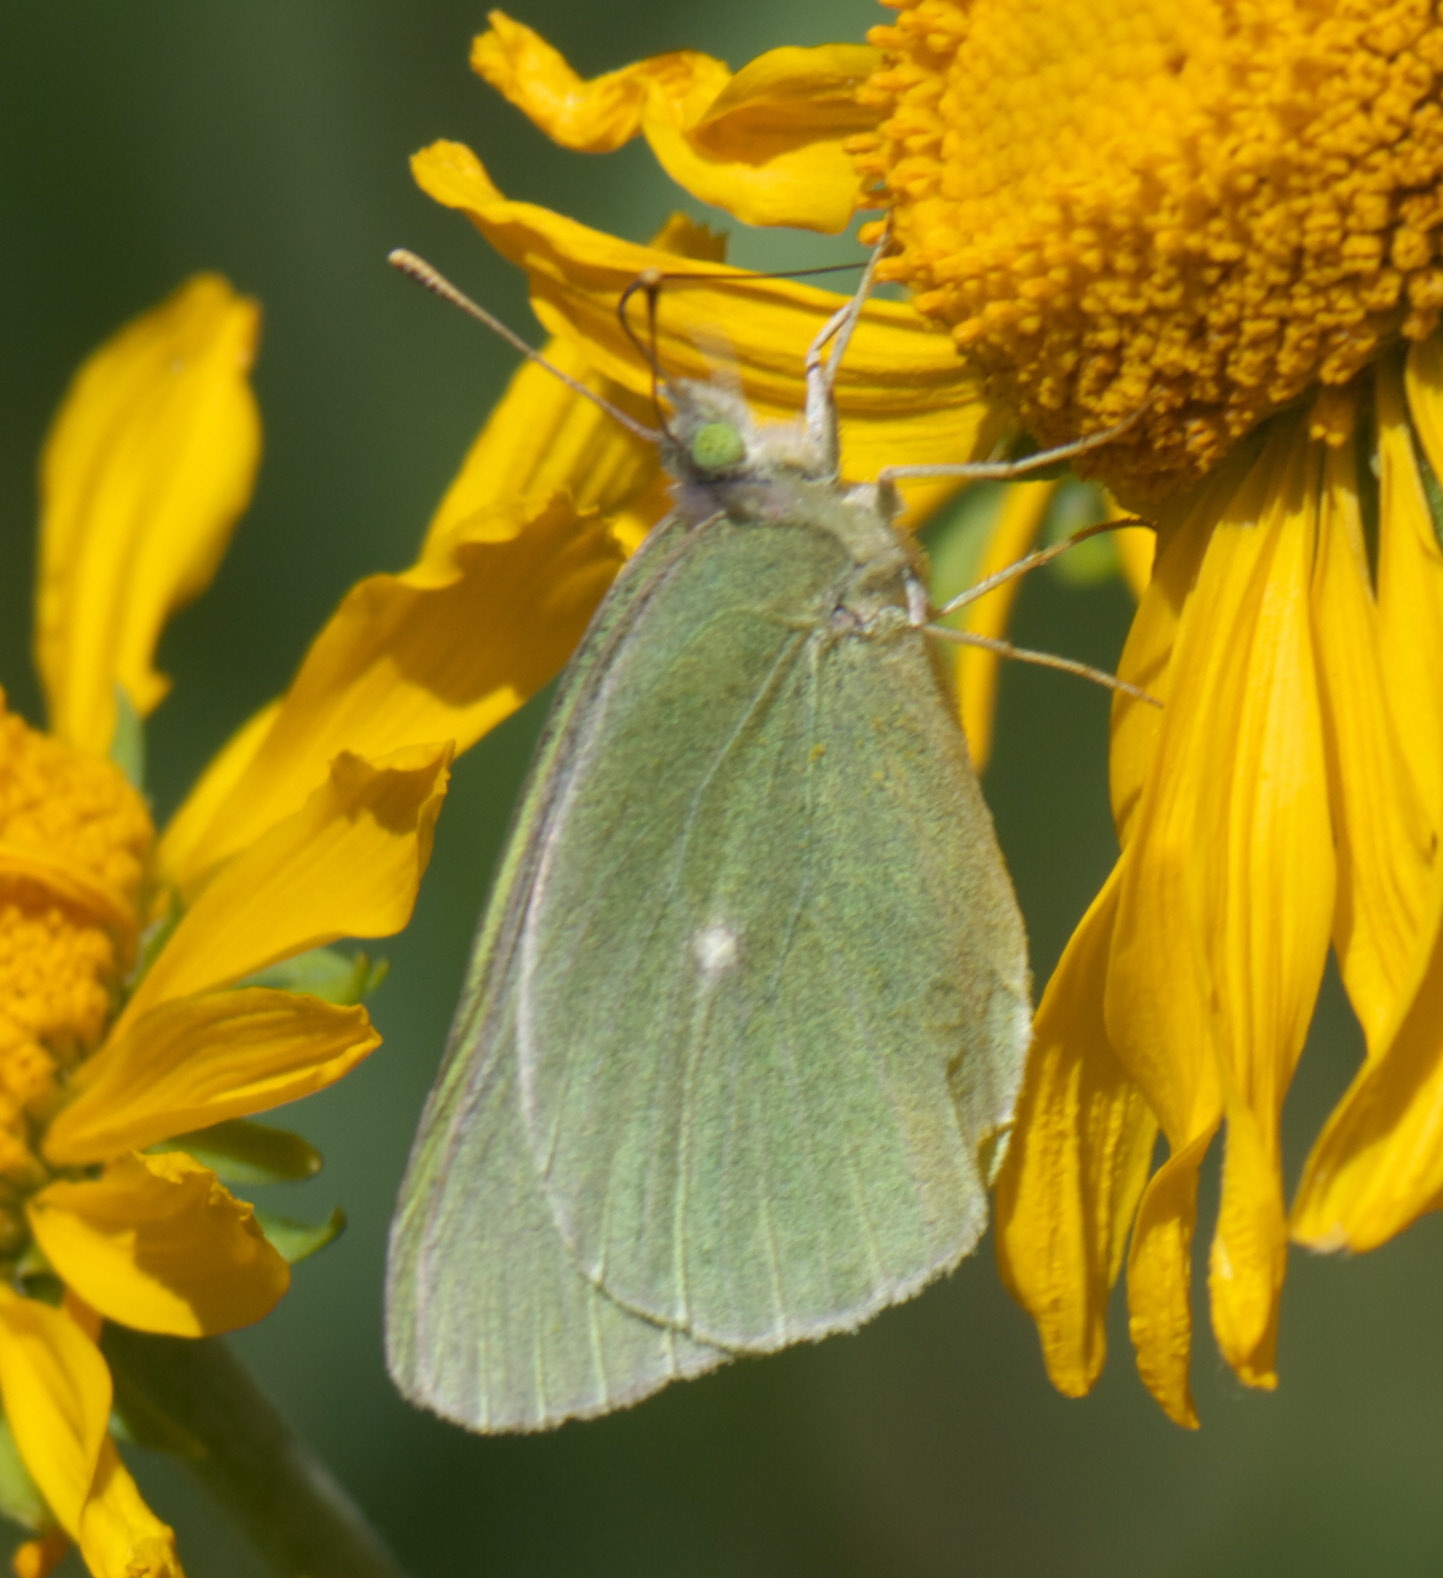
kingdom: Animalia
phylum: Arthropoda
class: Insecta
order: Lepidoptera
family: Pieridae
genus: Colias
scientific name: Colias alexandra
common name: Alexandra sulphur
